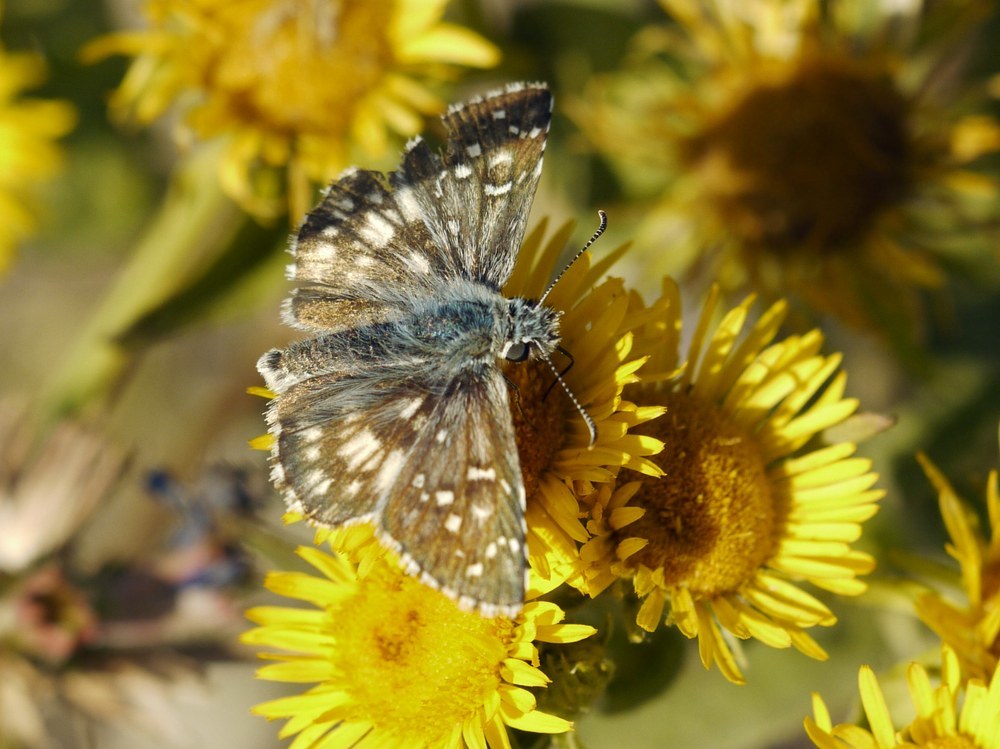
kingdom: Animalia
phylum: Arthropoda
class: Insecta
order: Lepidoptera
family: Hesperiidae
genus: Pyrgus
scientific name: Pyrgus armoricanus
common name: Oberthür's grizzled skipper
